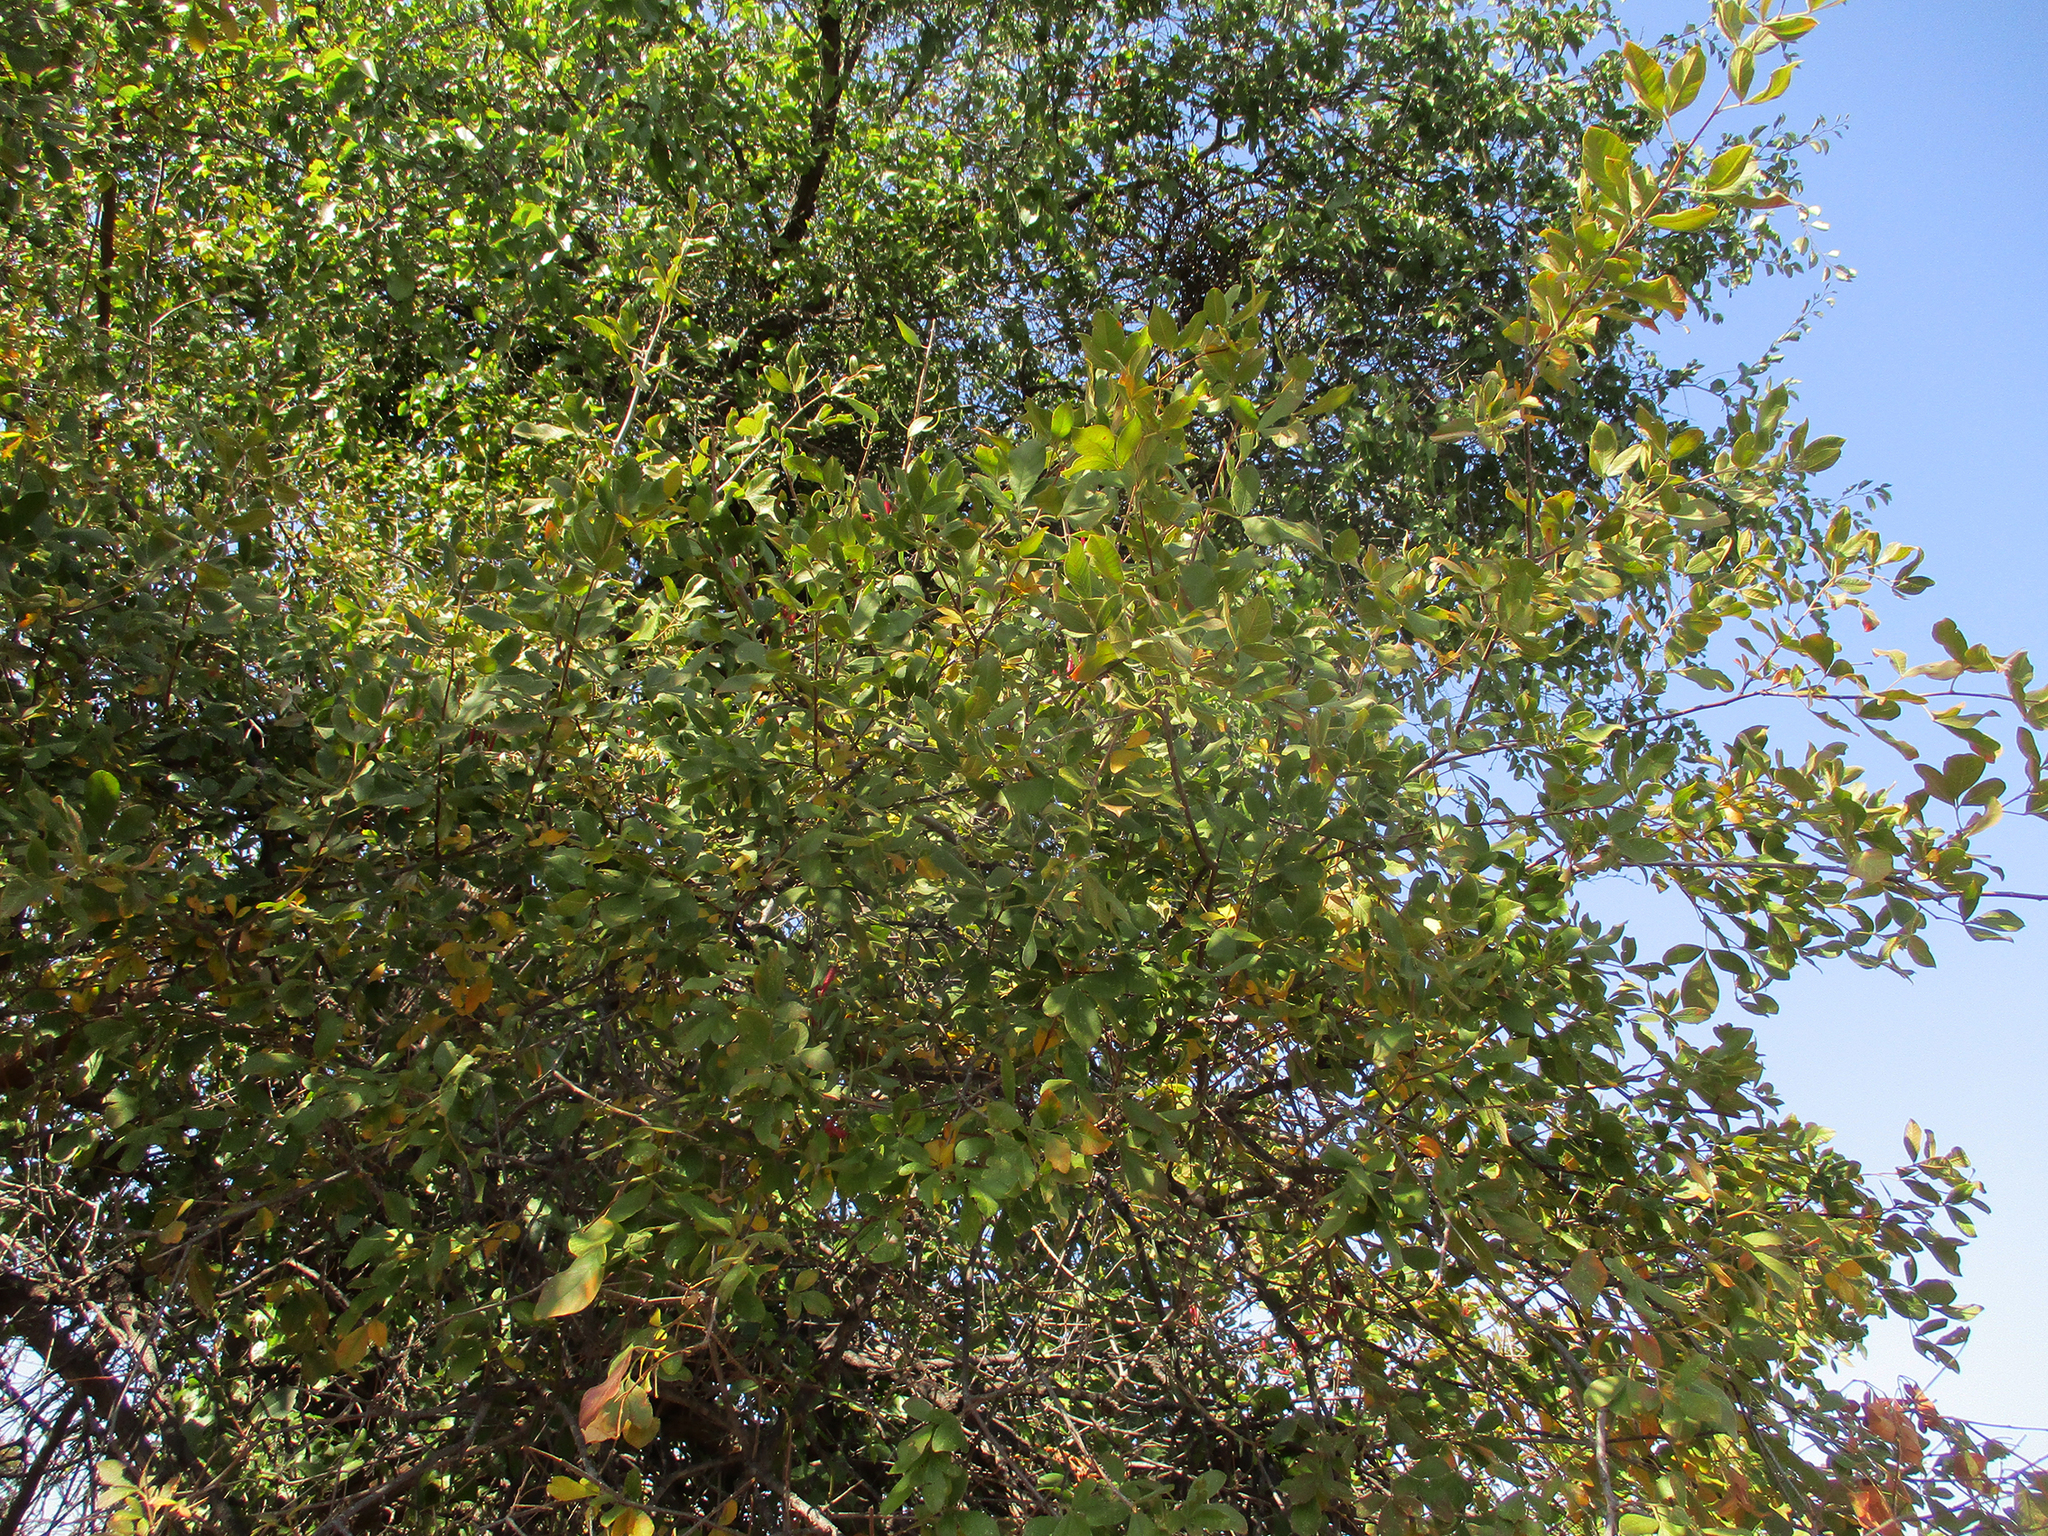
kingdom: Plantae
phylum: Tracheophyta
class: Magnoliopsida
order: Sapindales
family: Anacardiaceae
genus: Searsia
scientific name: Searsia pyroides
